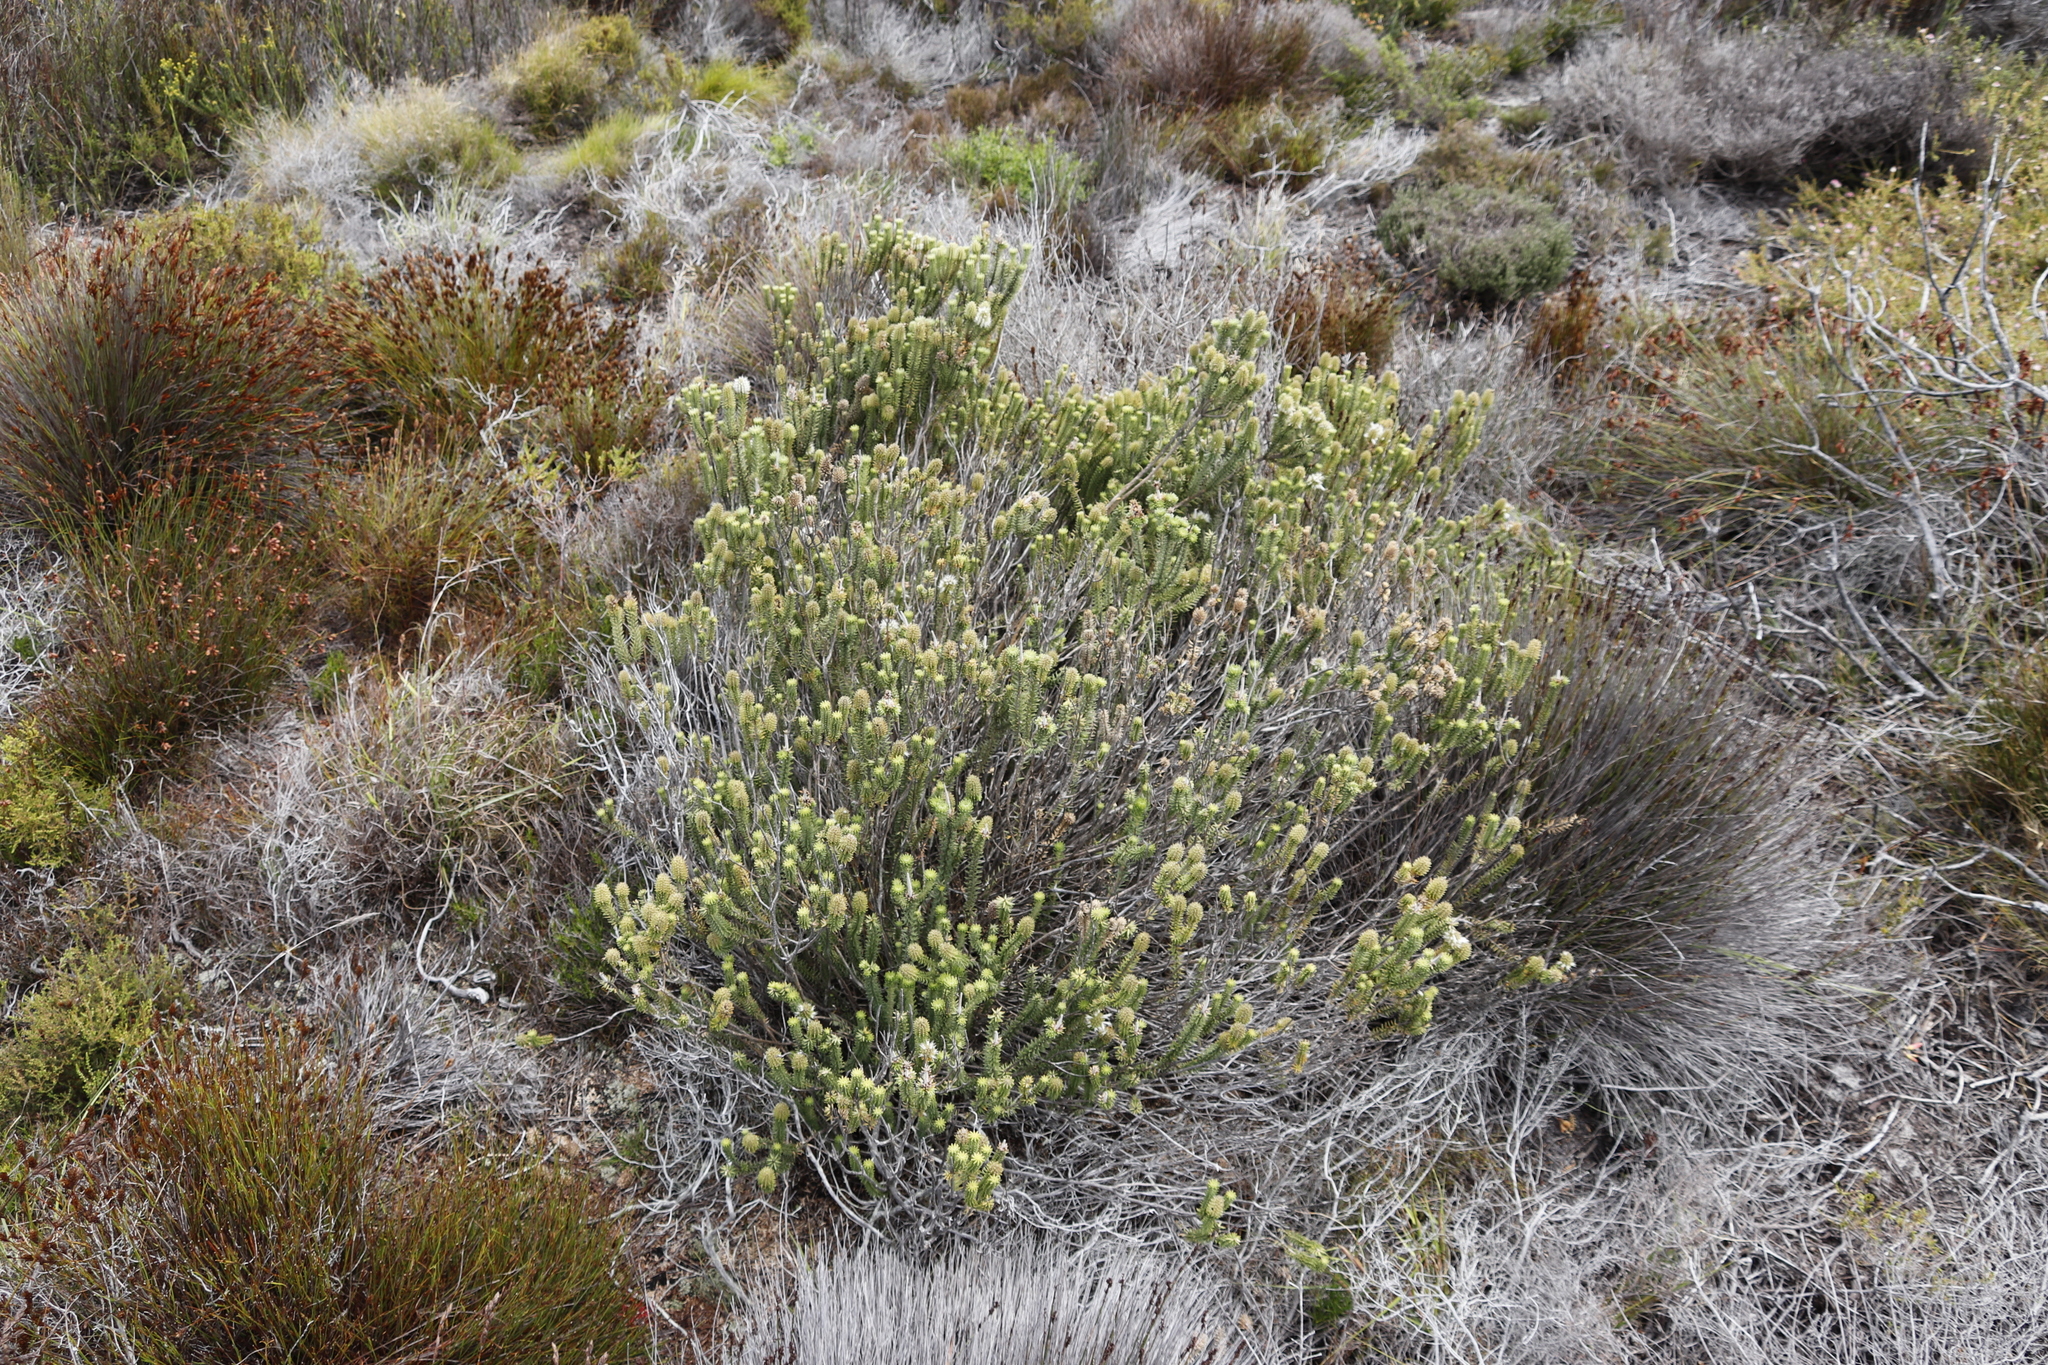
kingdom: Plantae
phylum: Tracheophyta
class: Magnoliopsida
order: Lamiales
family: Stilbaceae
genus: Stilbe
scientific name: Stilbe vestita
